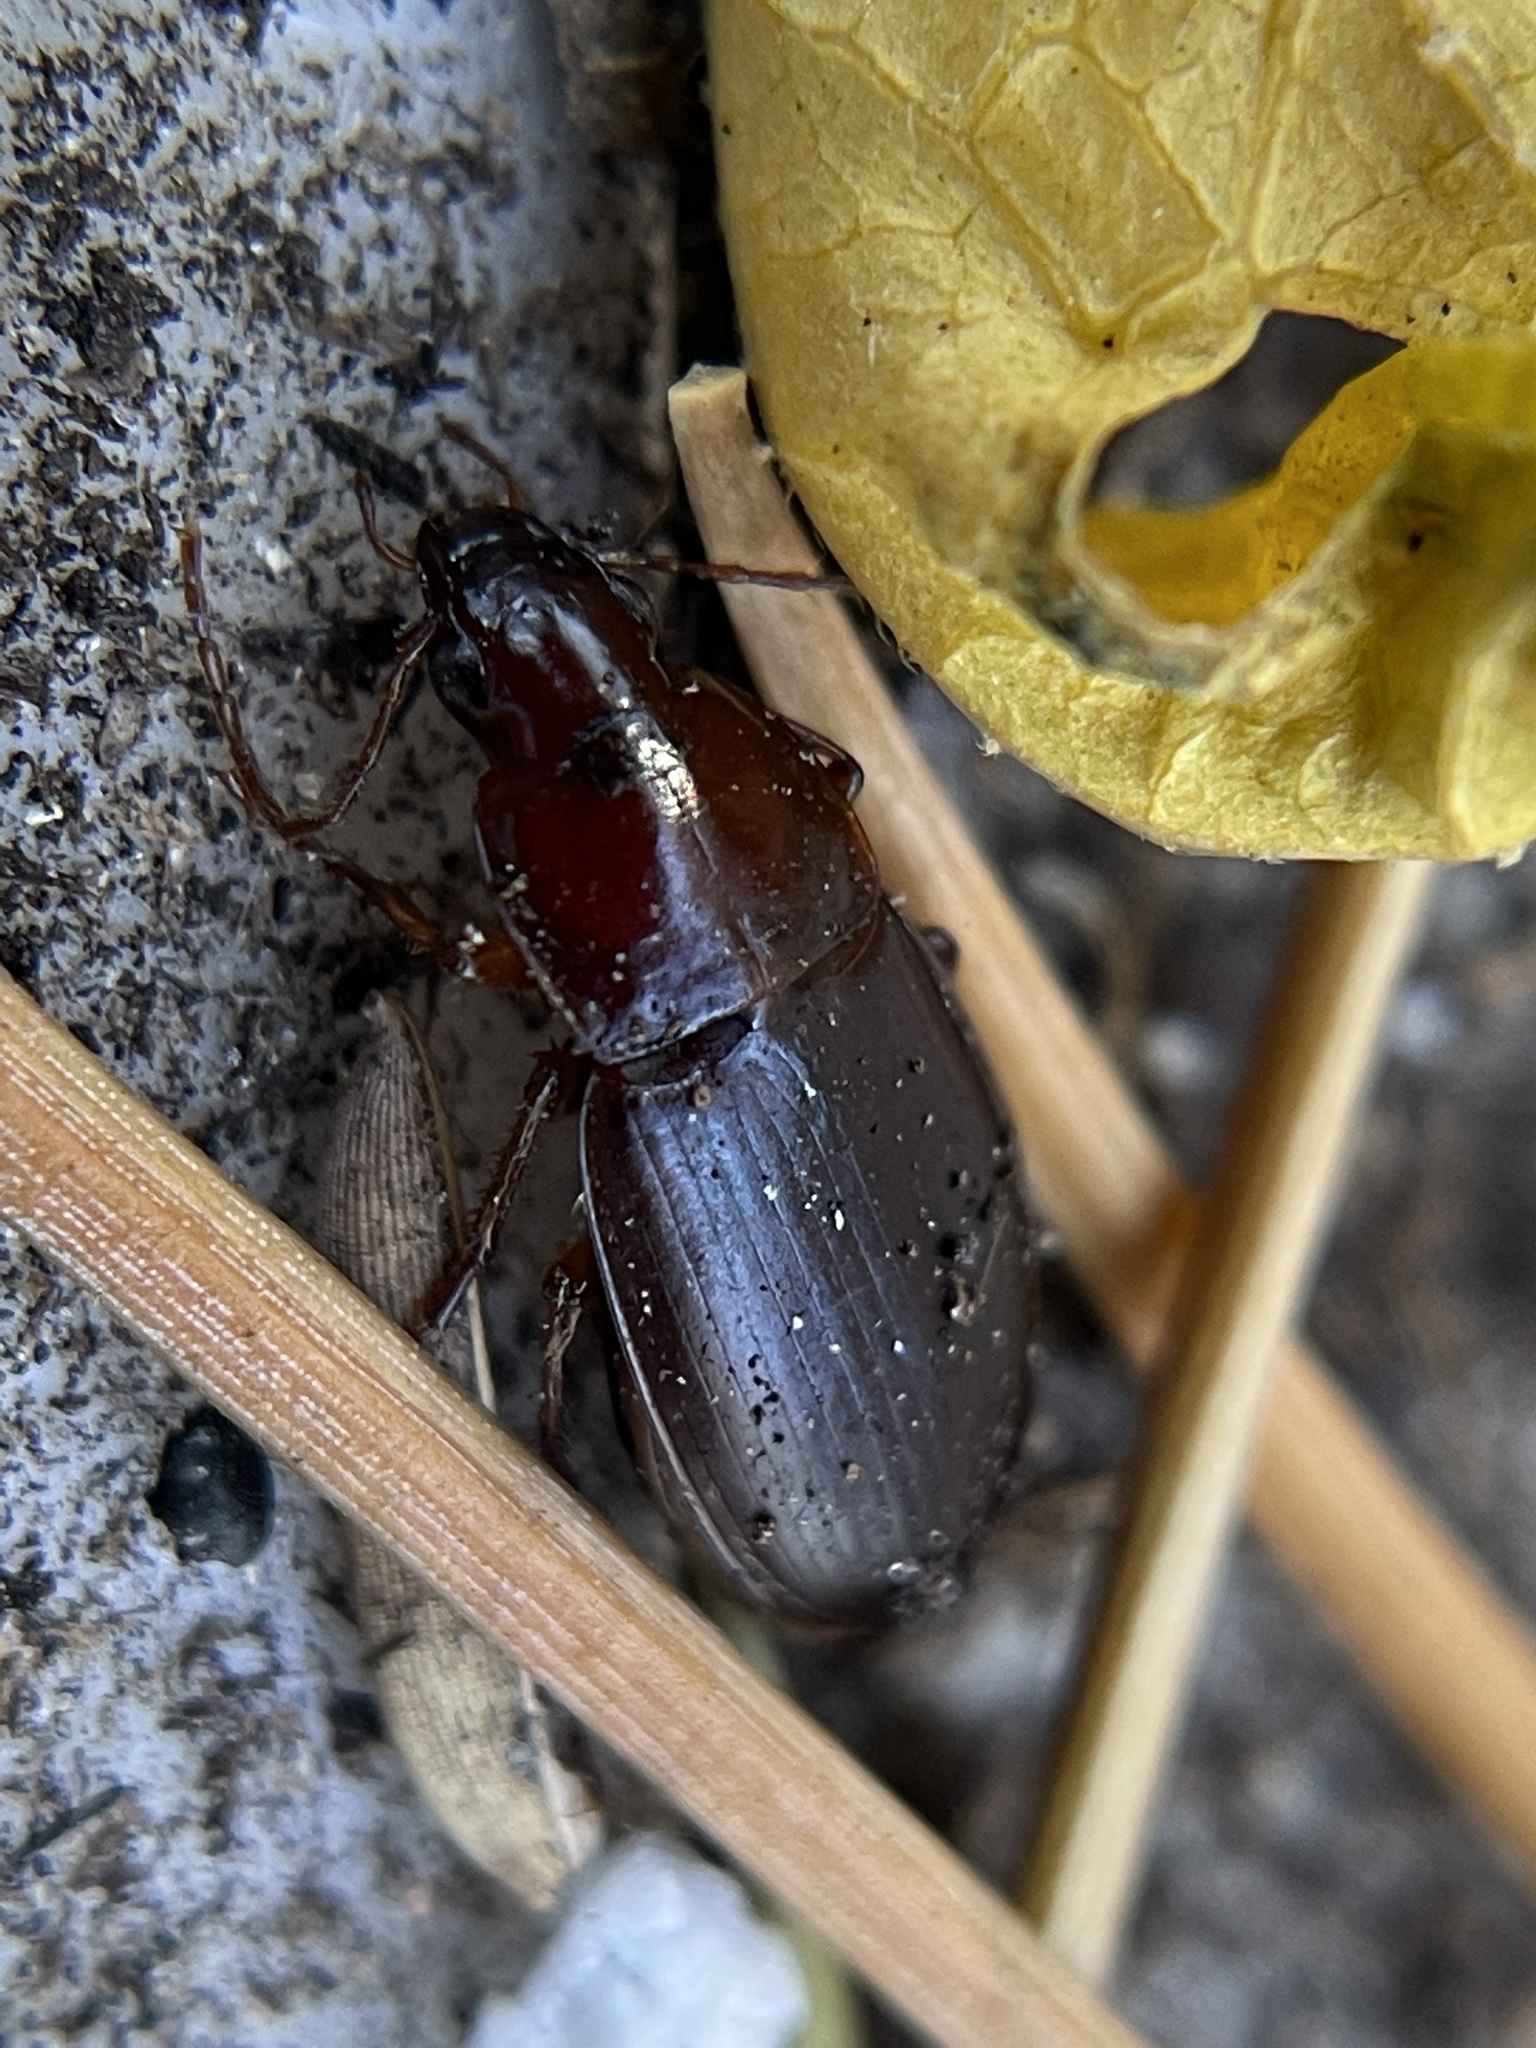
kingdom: Animalia
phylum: Arthropoda
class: Insecta
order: Coleoptera
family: Carabidae
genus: Calathus
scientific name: Calathus ruficollis
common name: Red-collared harp ground beetle
